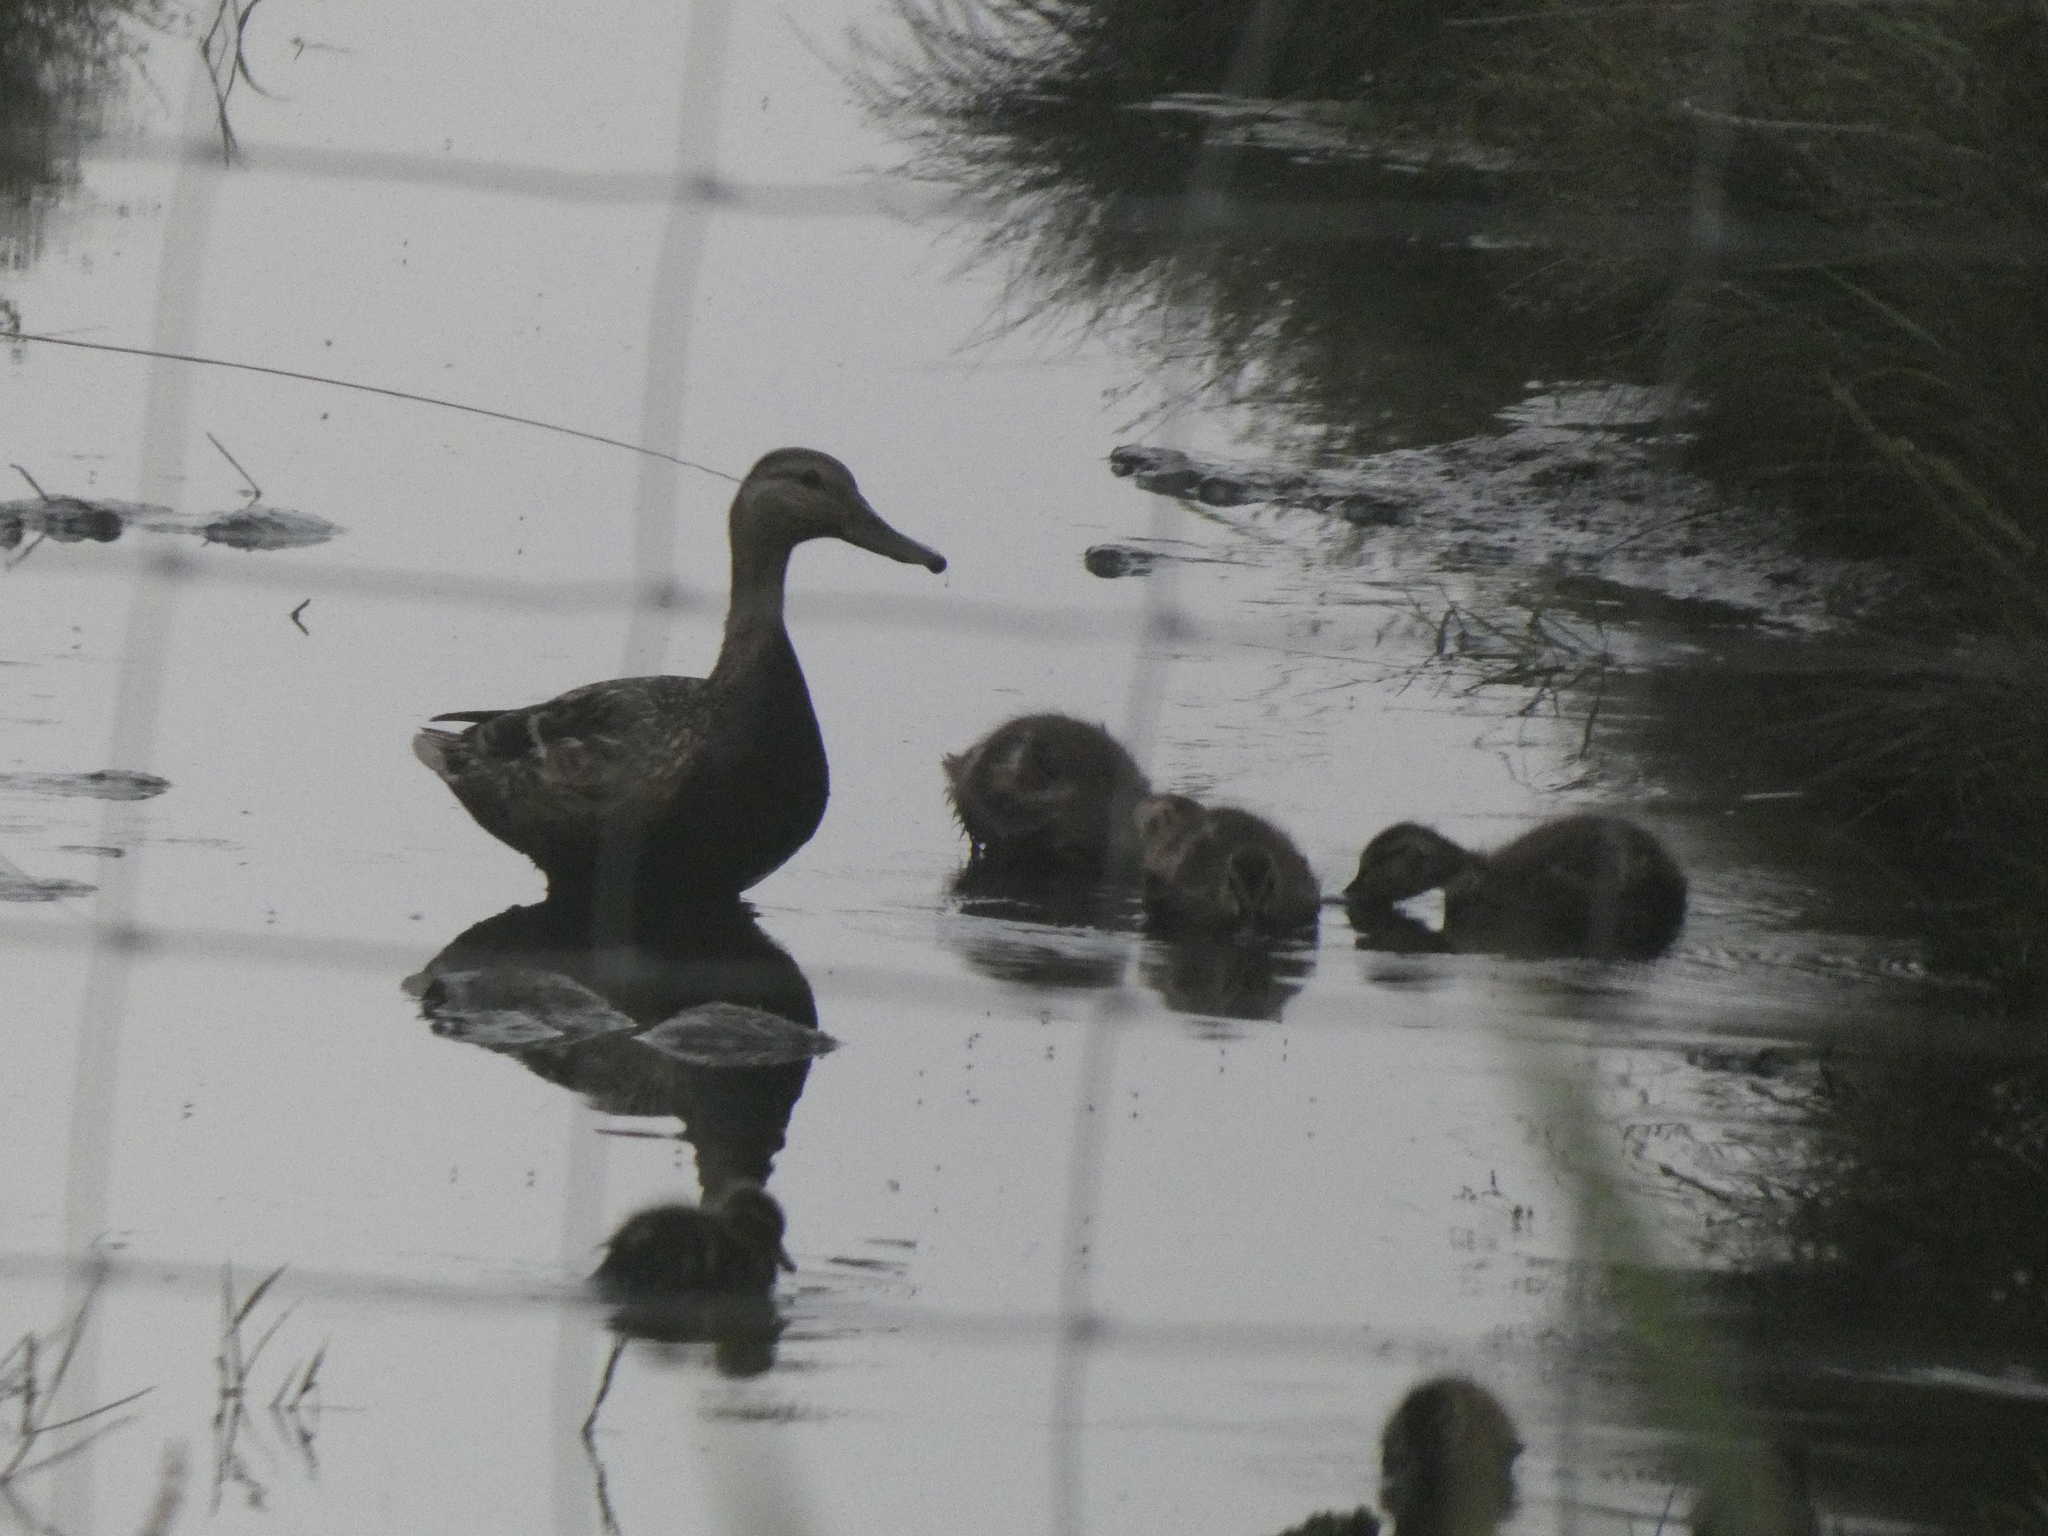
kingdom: Animalia
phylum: Chordata
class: Aves
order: Anseriformes
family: Anatidae
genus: Anas
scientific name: Anas platyrhynchos
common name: Mallard
